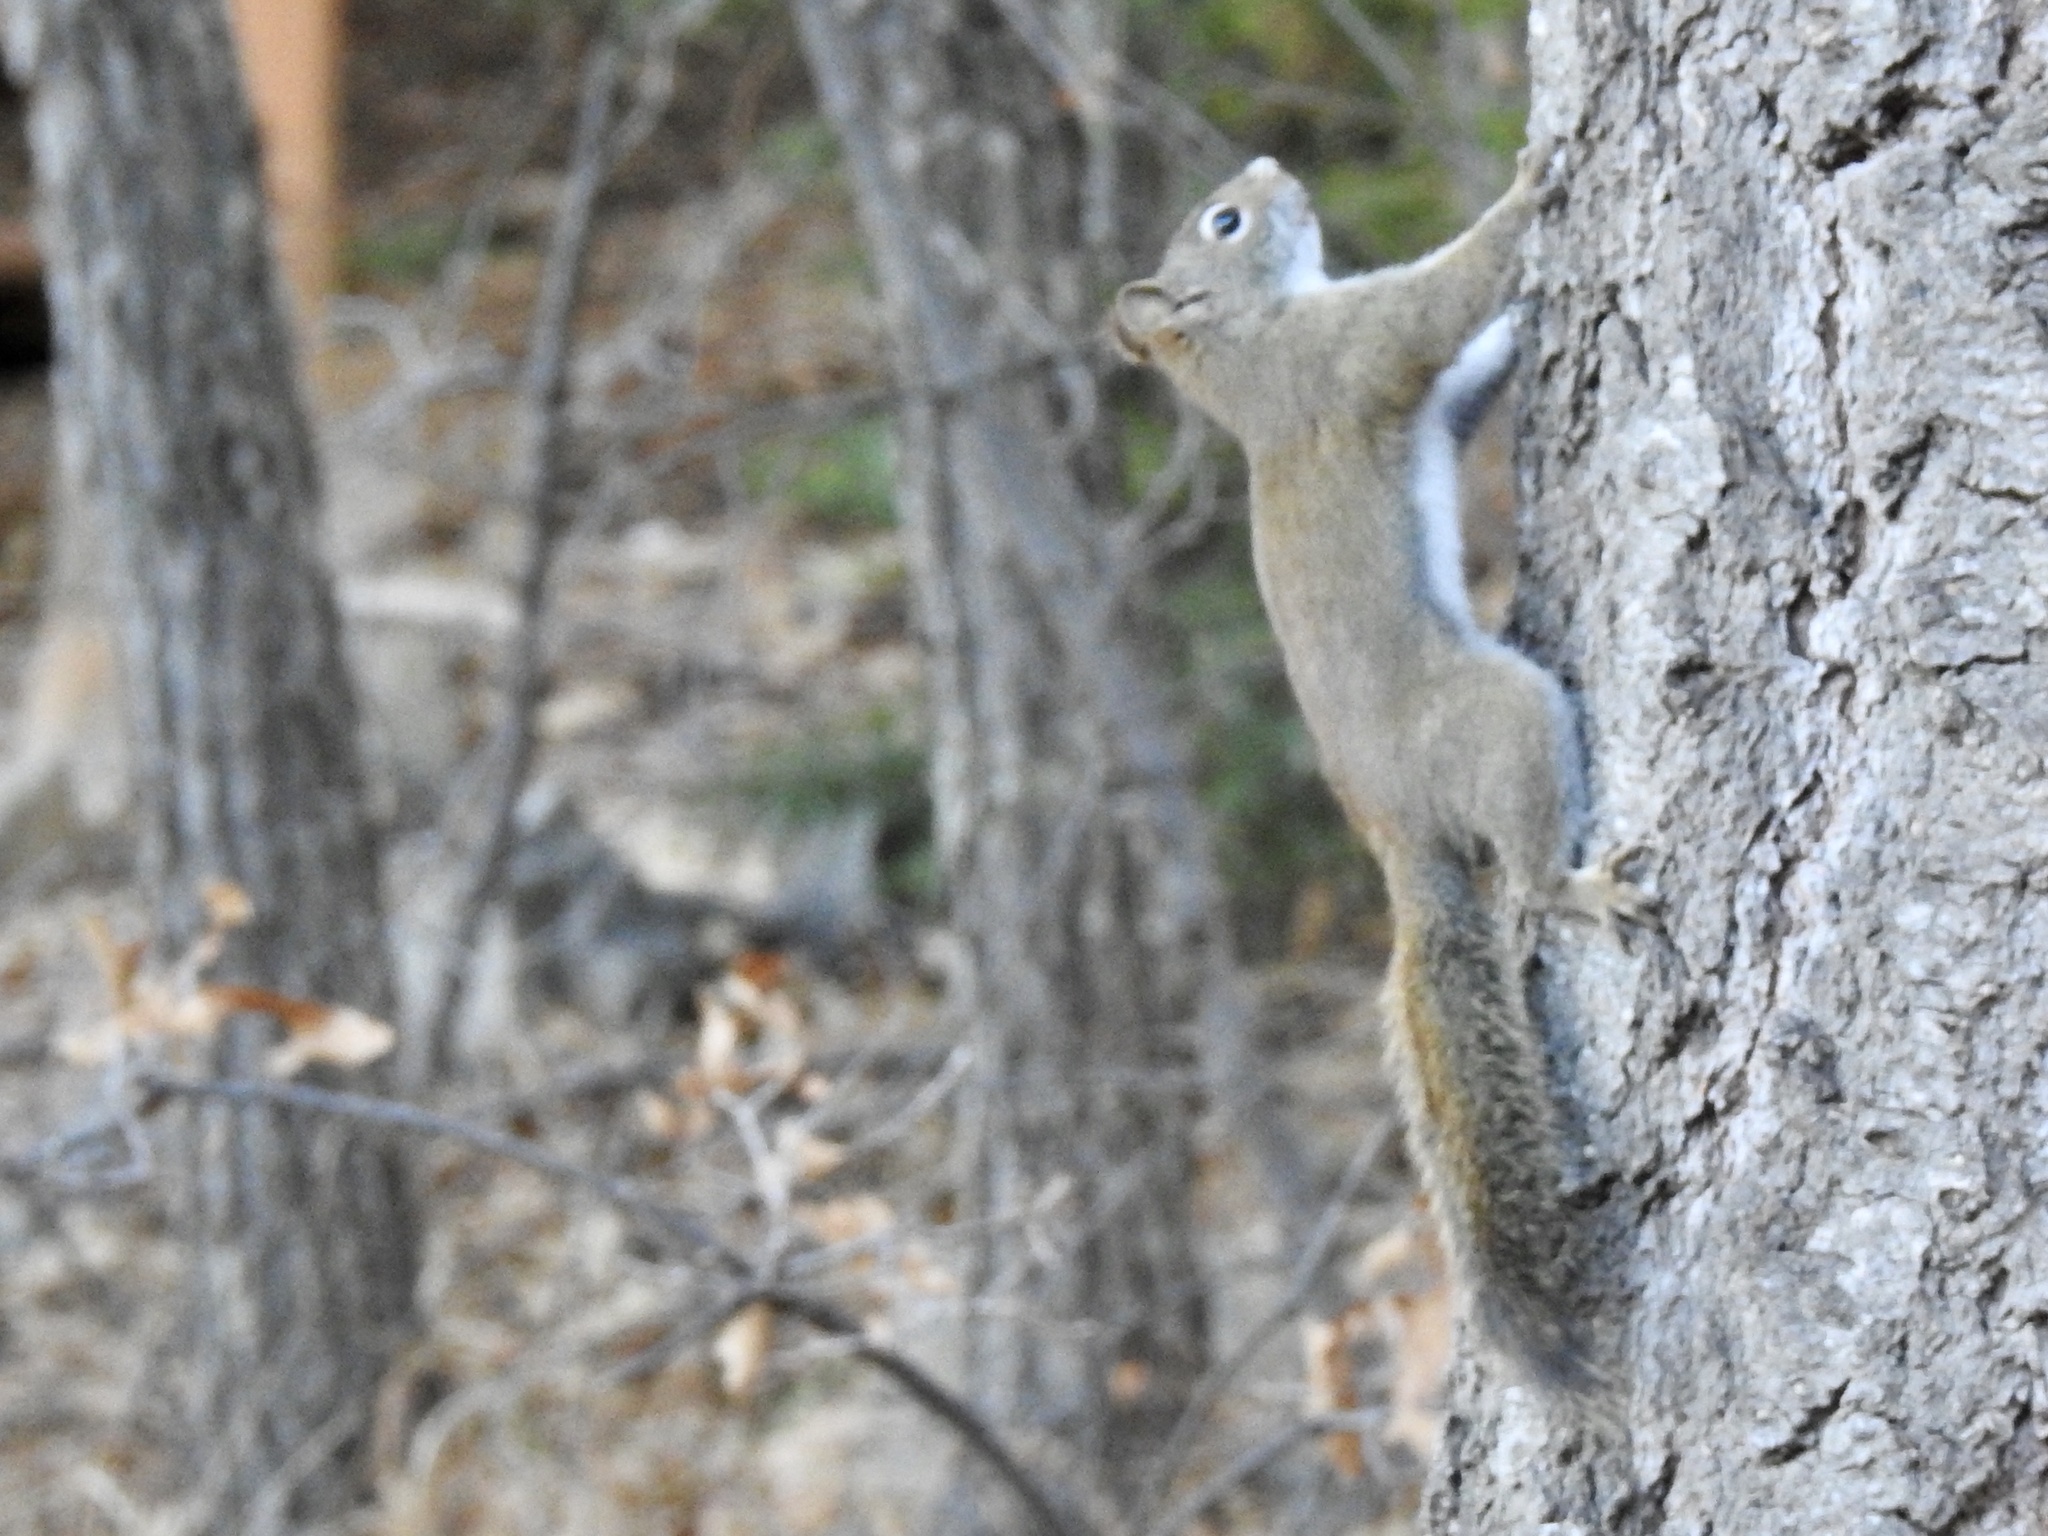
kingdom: Animalia
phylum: Chordata
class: Mammalia
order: Rodentia
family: Sciuridae
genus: Tamiasciurus
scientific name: Tamiasciurus hudsonicus
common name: Red squirrel
